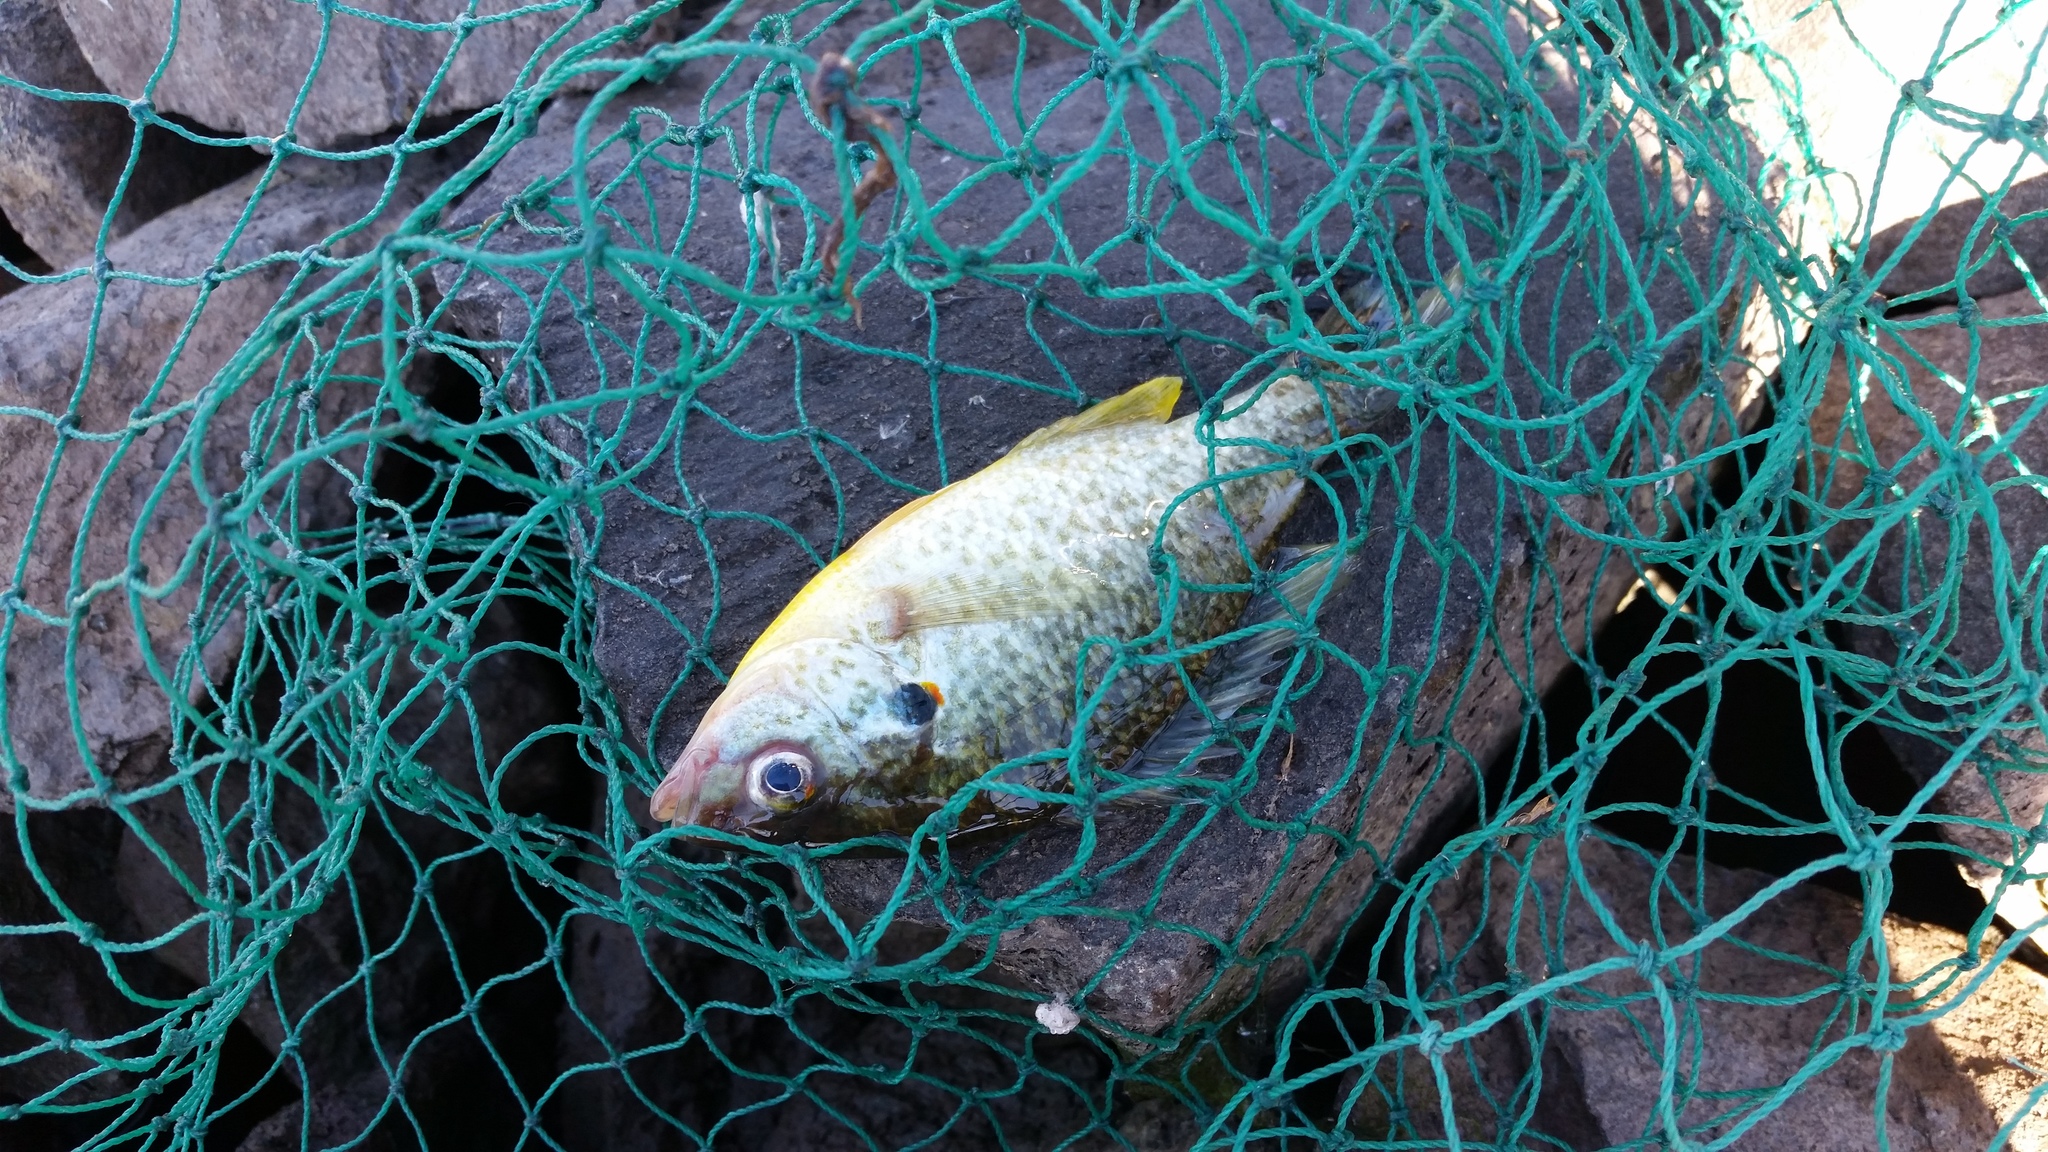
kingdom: Animalia
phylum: Chordata
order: Perciformes
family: Centrarchidae
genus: Lepomis
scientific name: Lepomis microlophus
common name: Redear sunfish
